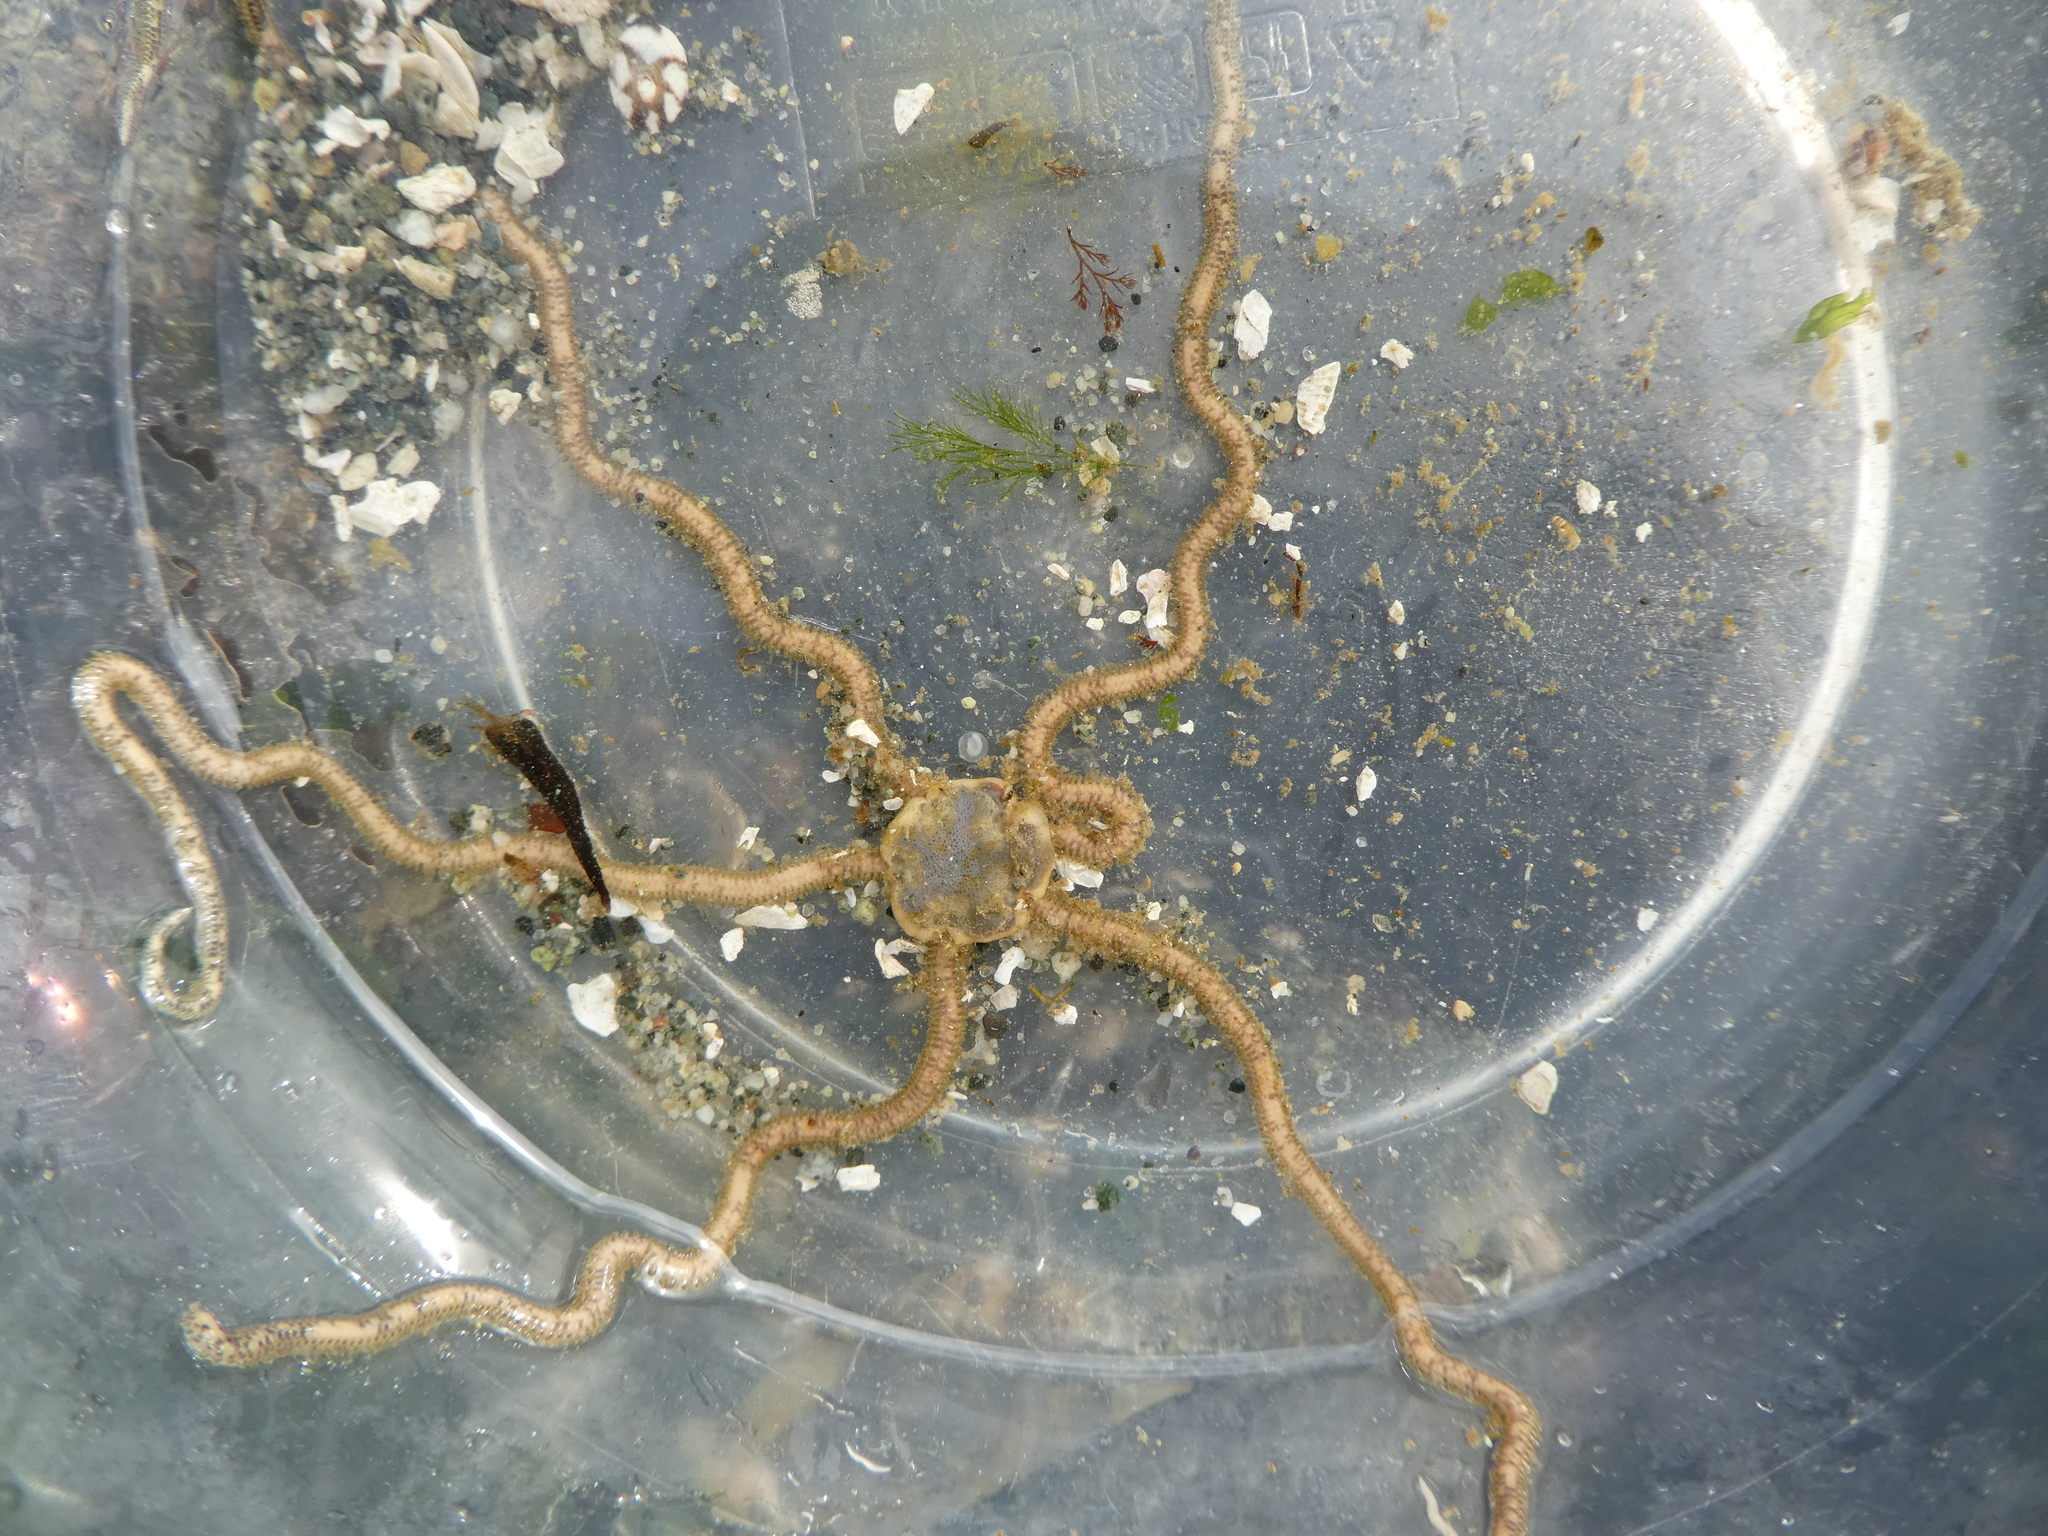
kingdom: Animalia
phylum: Echinodermata
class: Ophiuroidea
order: Amphilepidida
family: Amphiuridae
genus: Amphiodia
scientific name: Amphiodia occidentalis
